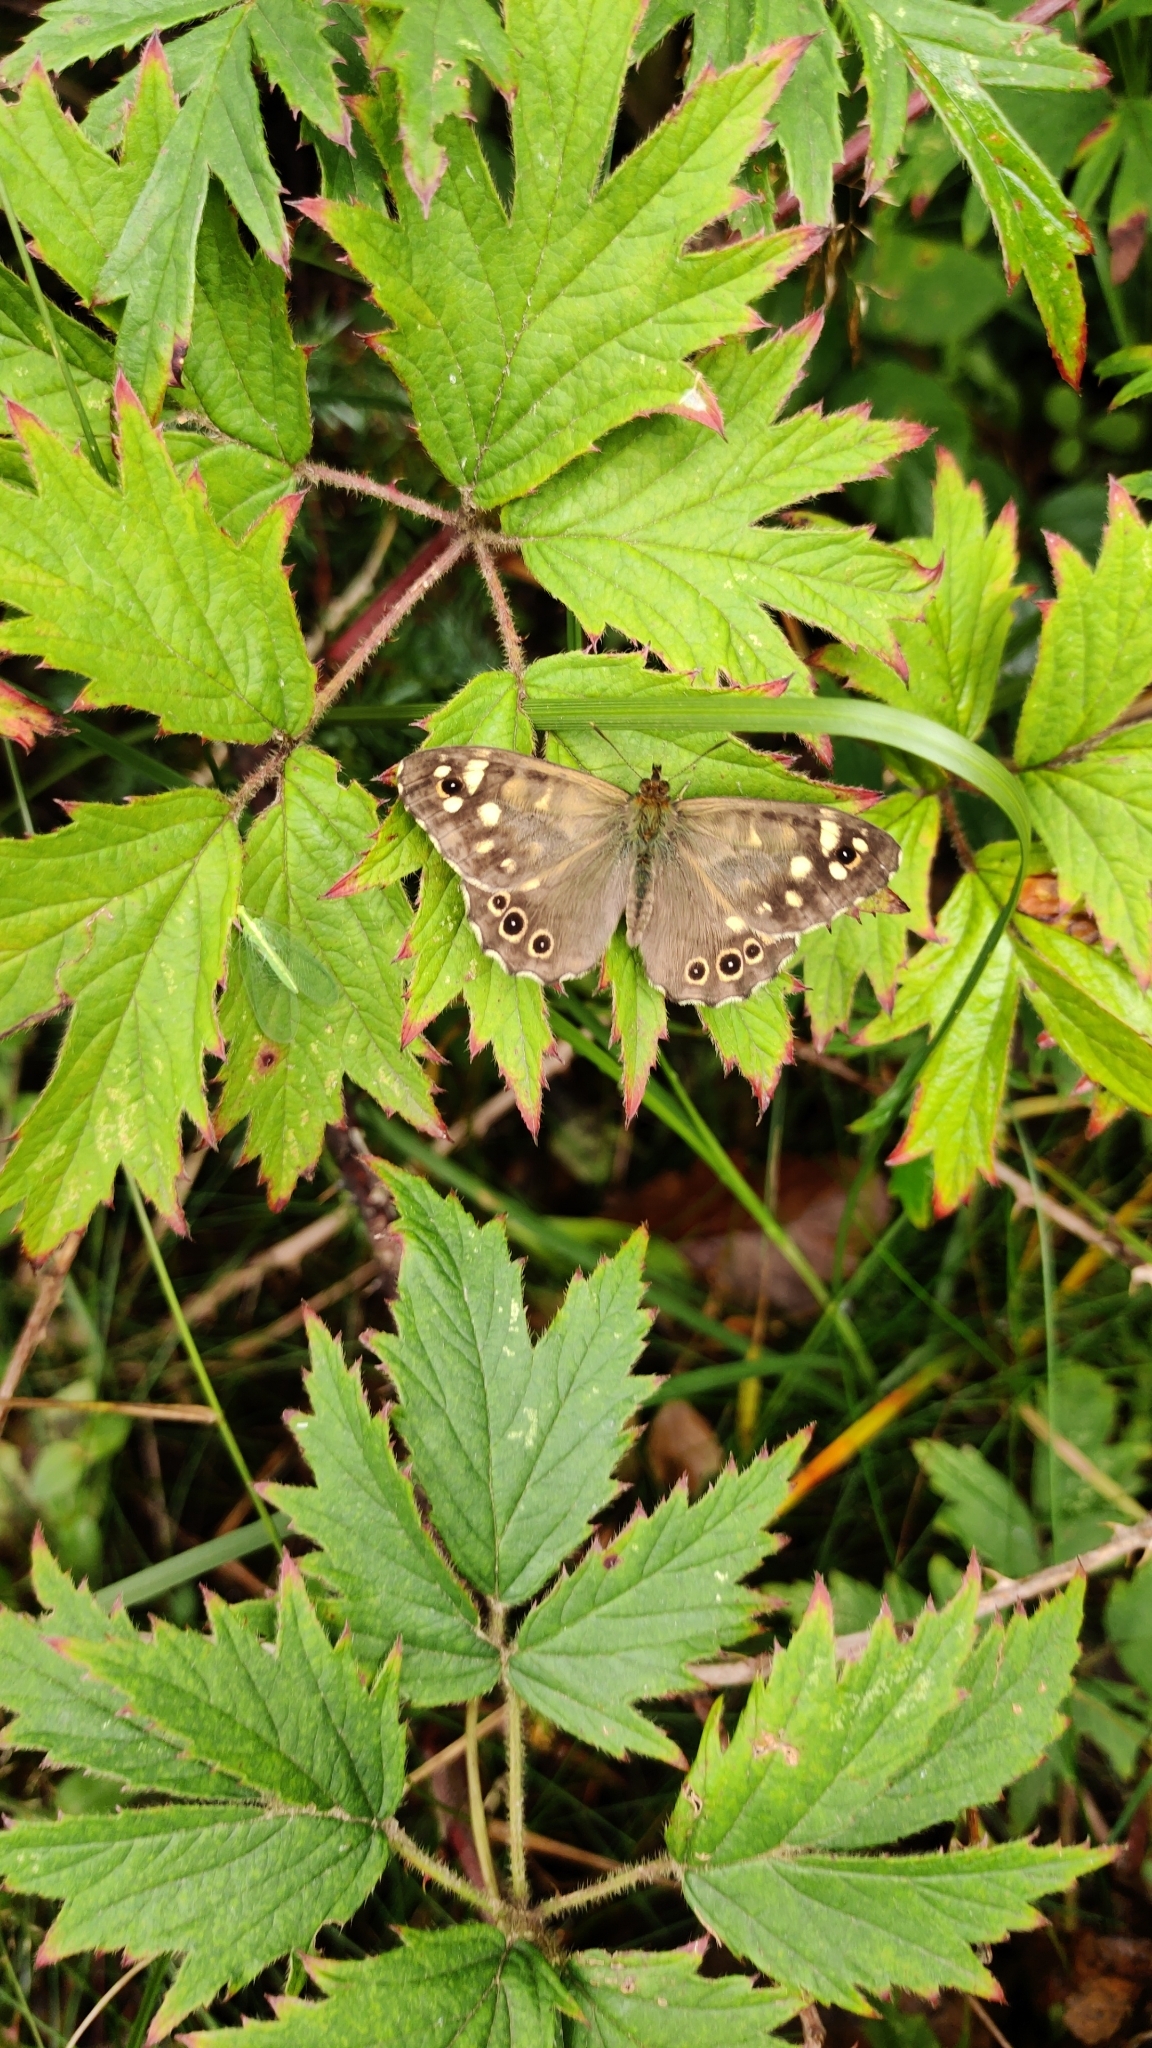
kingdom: Animalia
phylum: Arthropoda
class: Insecta
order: Lepidoptera
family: Nymphalidae
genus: Pararge
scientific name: Pararge aegeria
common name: Speckled wood
